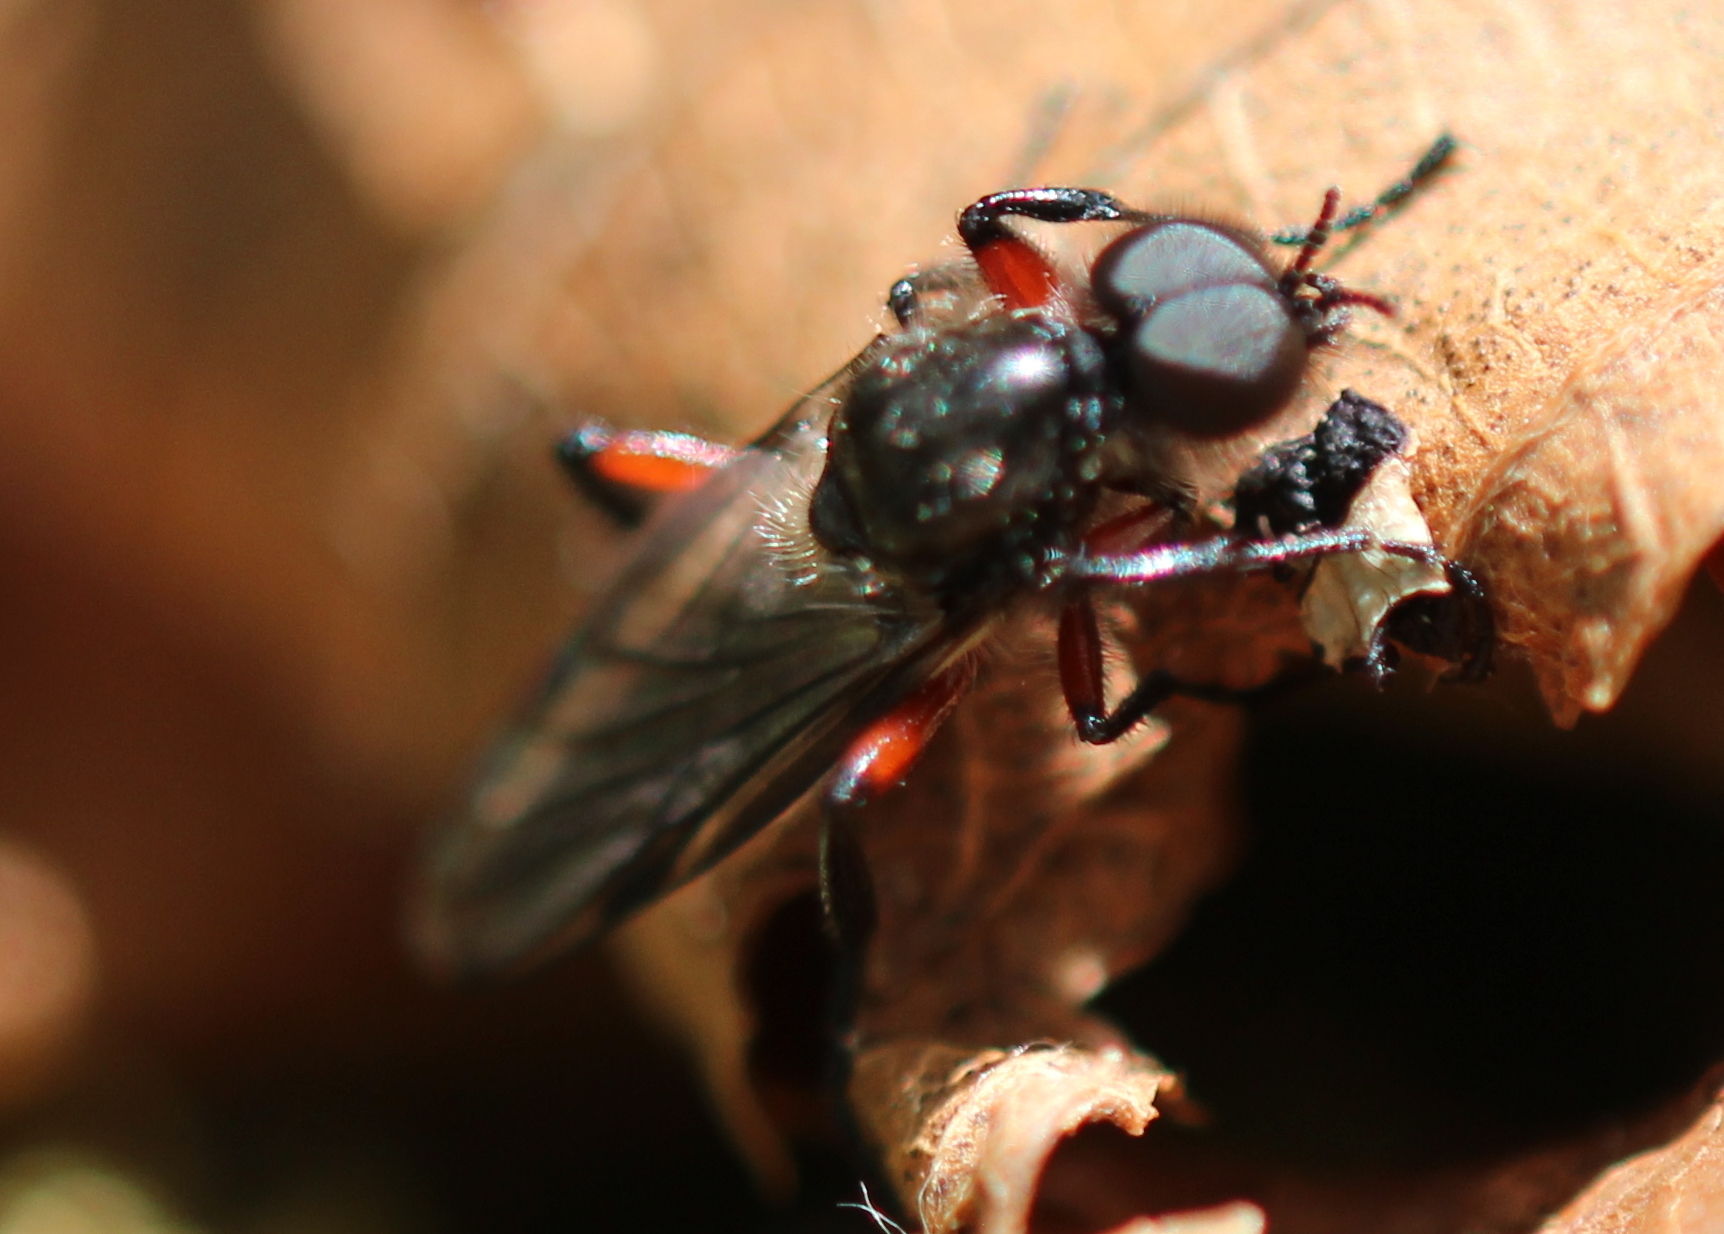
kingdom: Animalia
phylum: Arthropoda
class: Insecta
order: Diptera
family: Bibionidae
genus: Bibio
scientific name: Bibio femoratus
